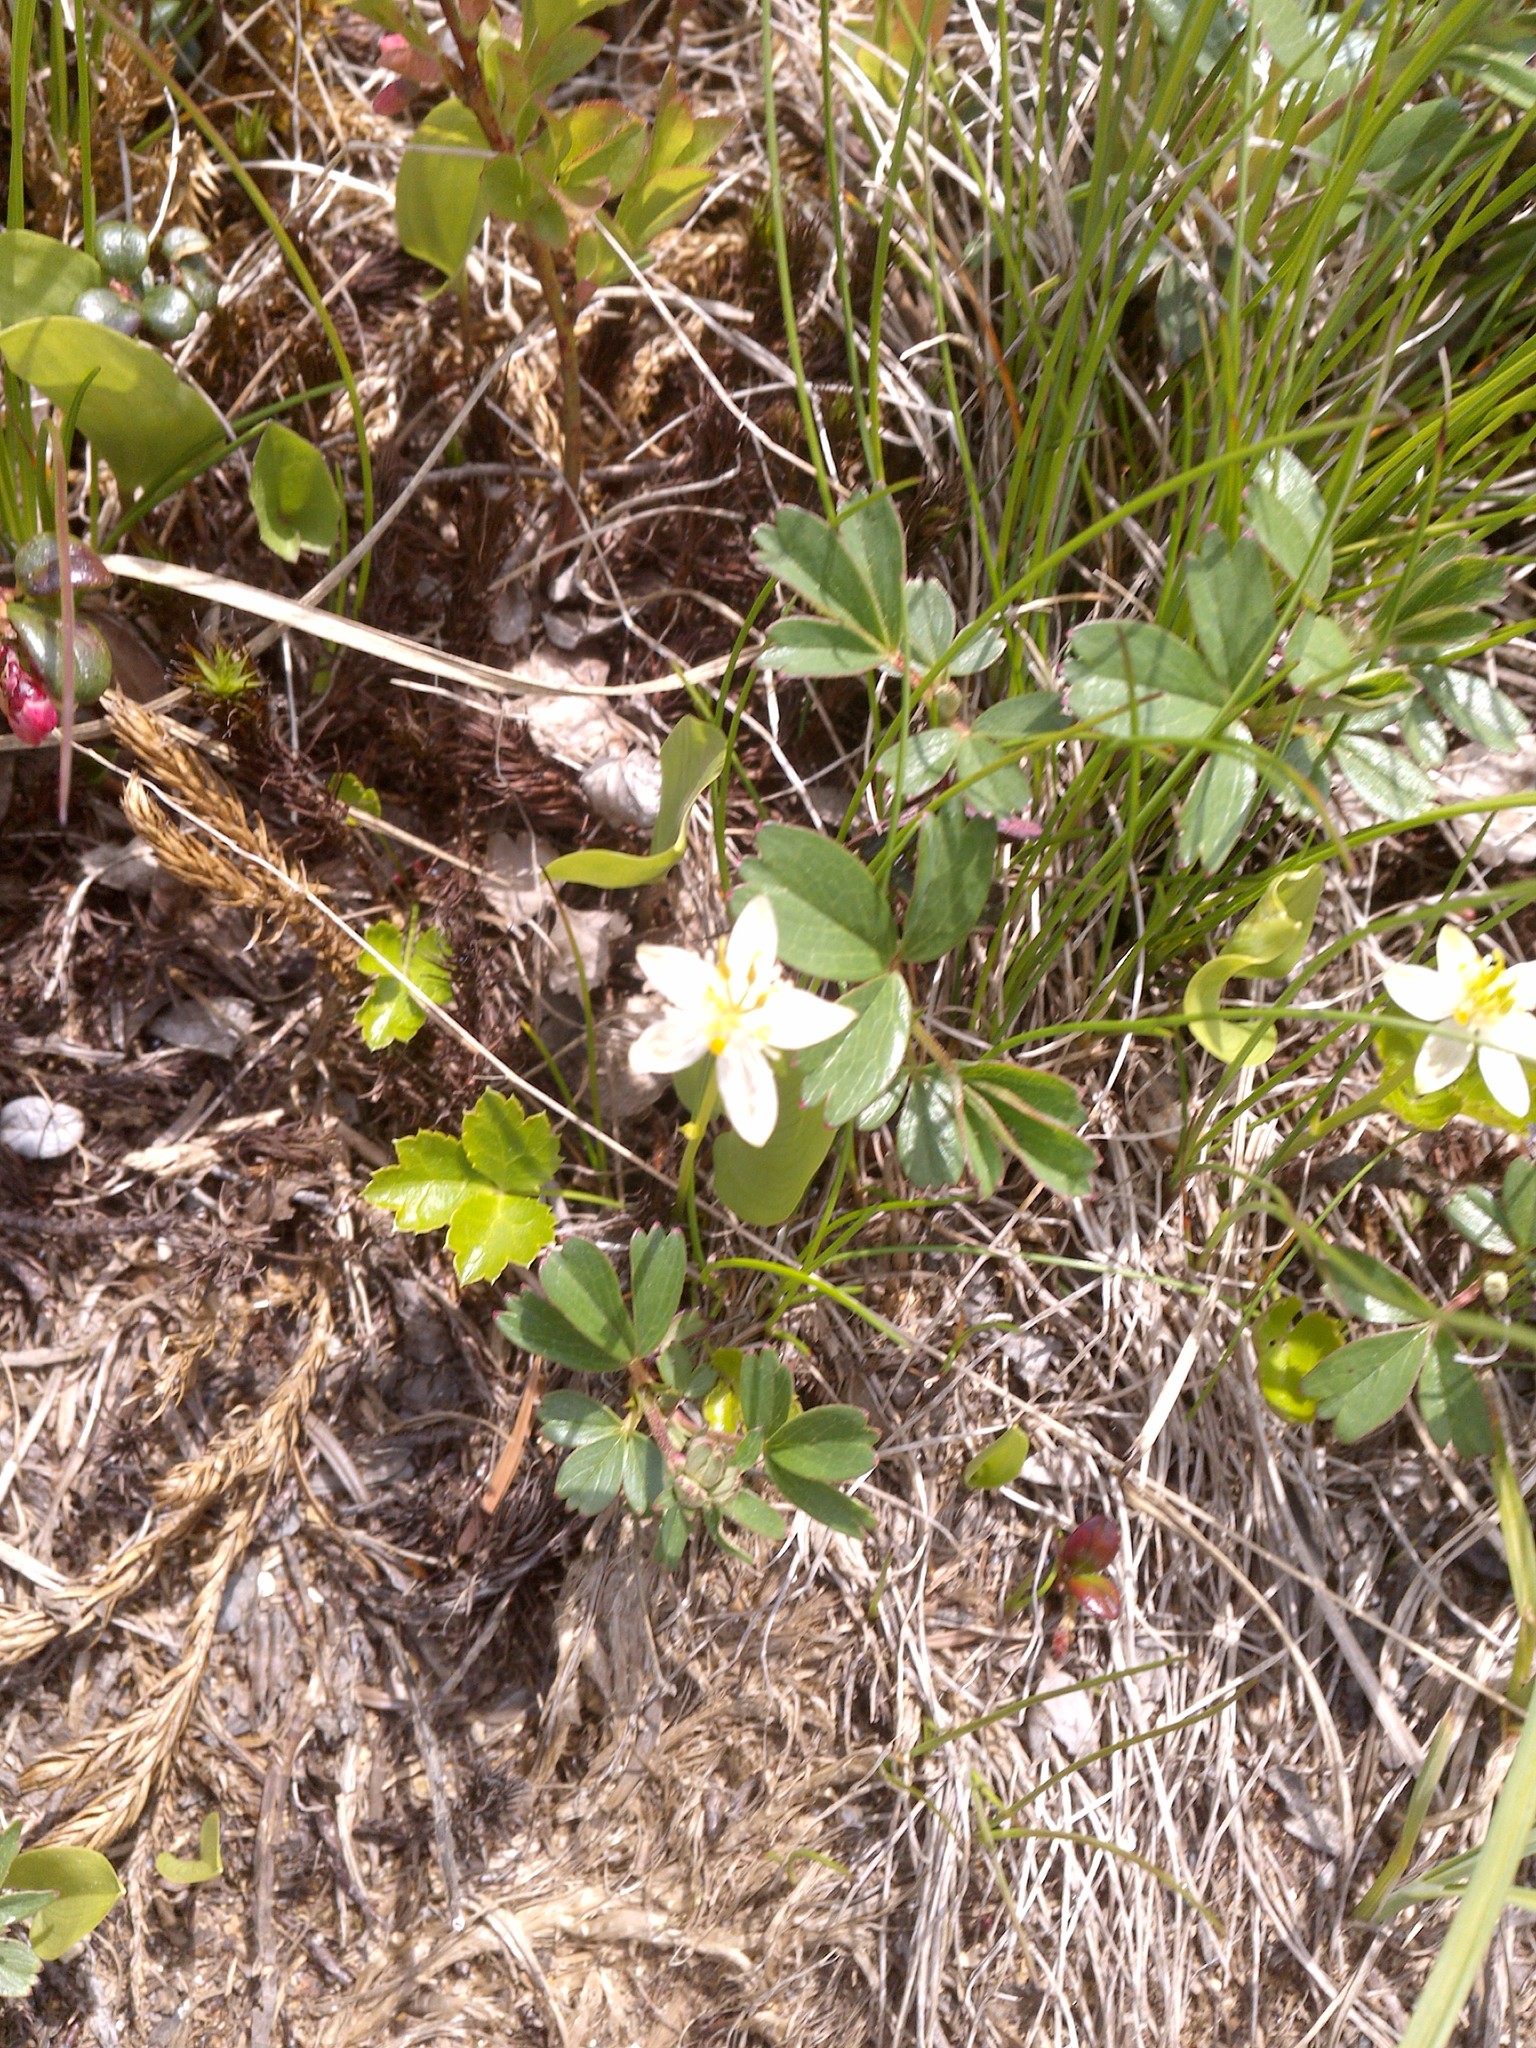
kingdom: Plantae
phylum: Tracheophyta
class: Magnoliopsida
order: Ranunculales
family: Ranunculaceae
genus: Coptis
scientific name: Coptis trifolia
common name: Canker-root
